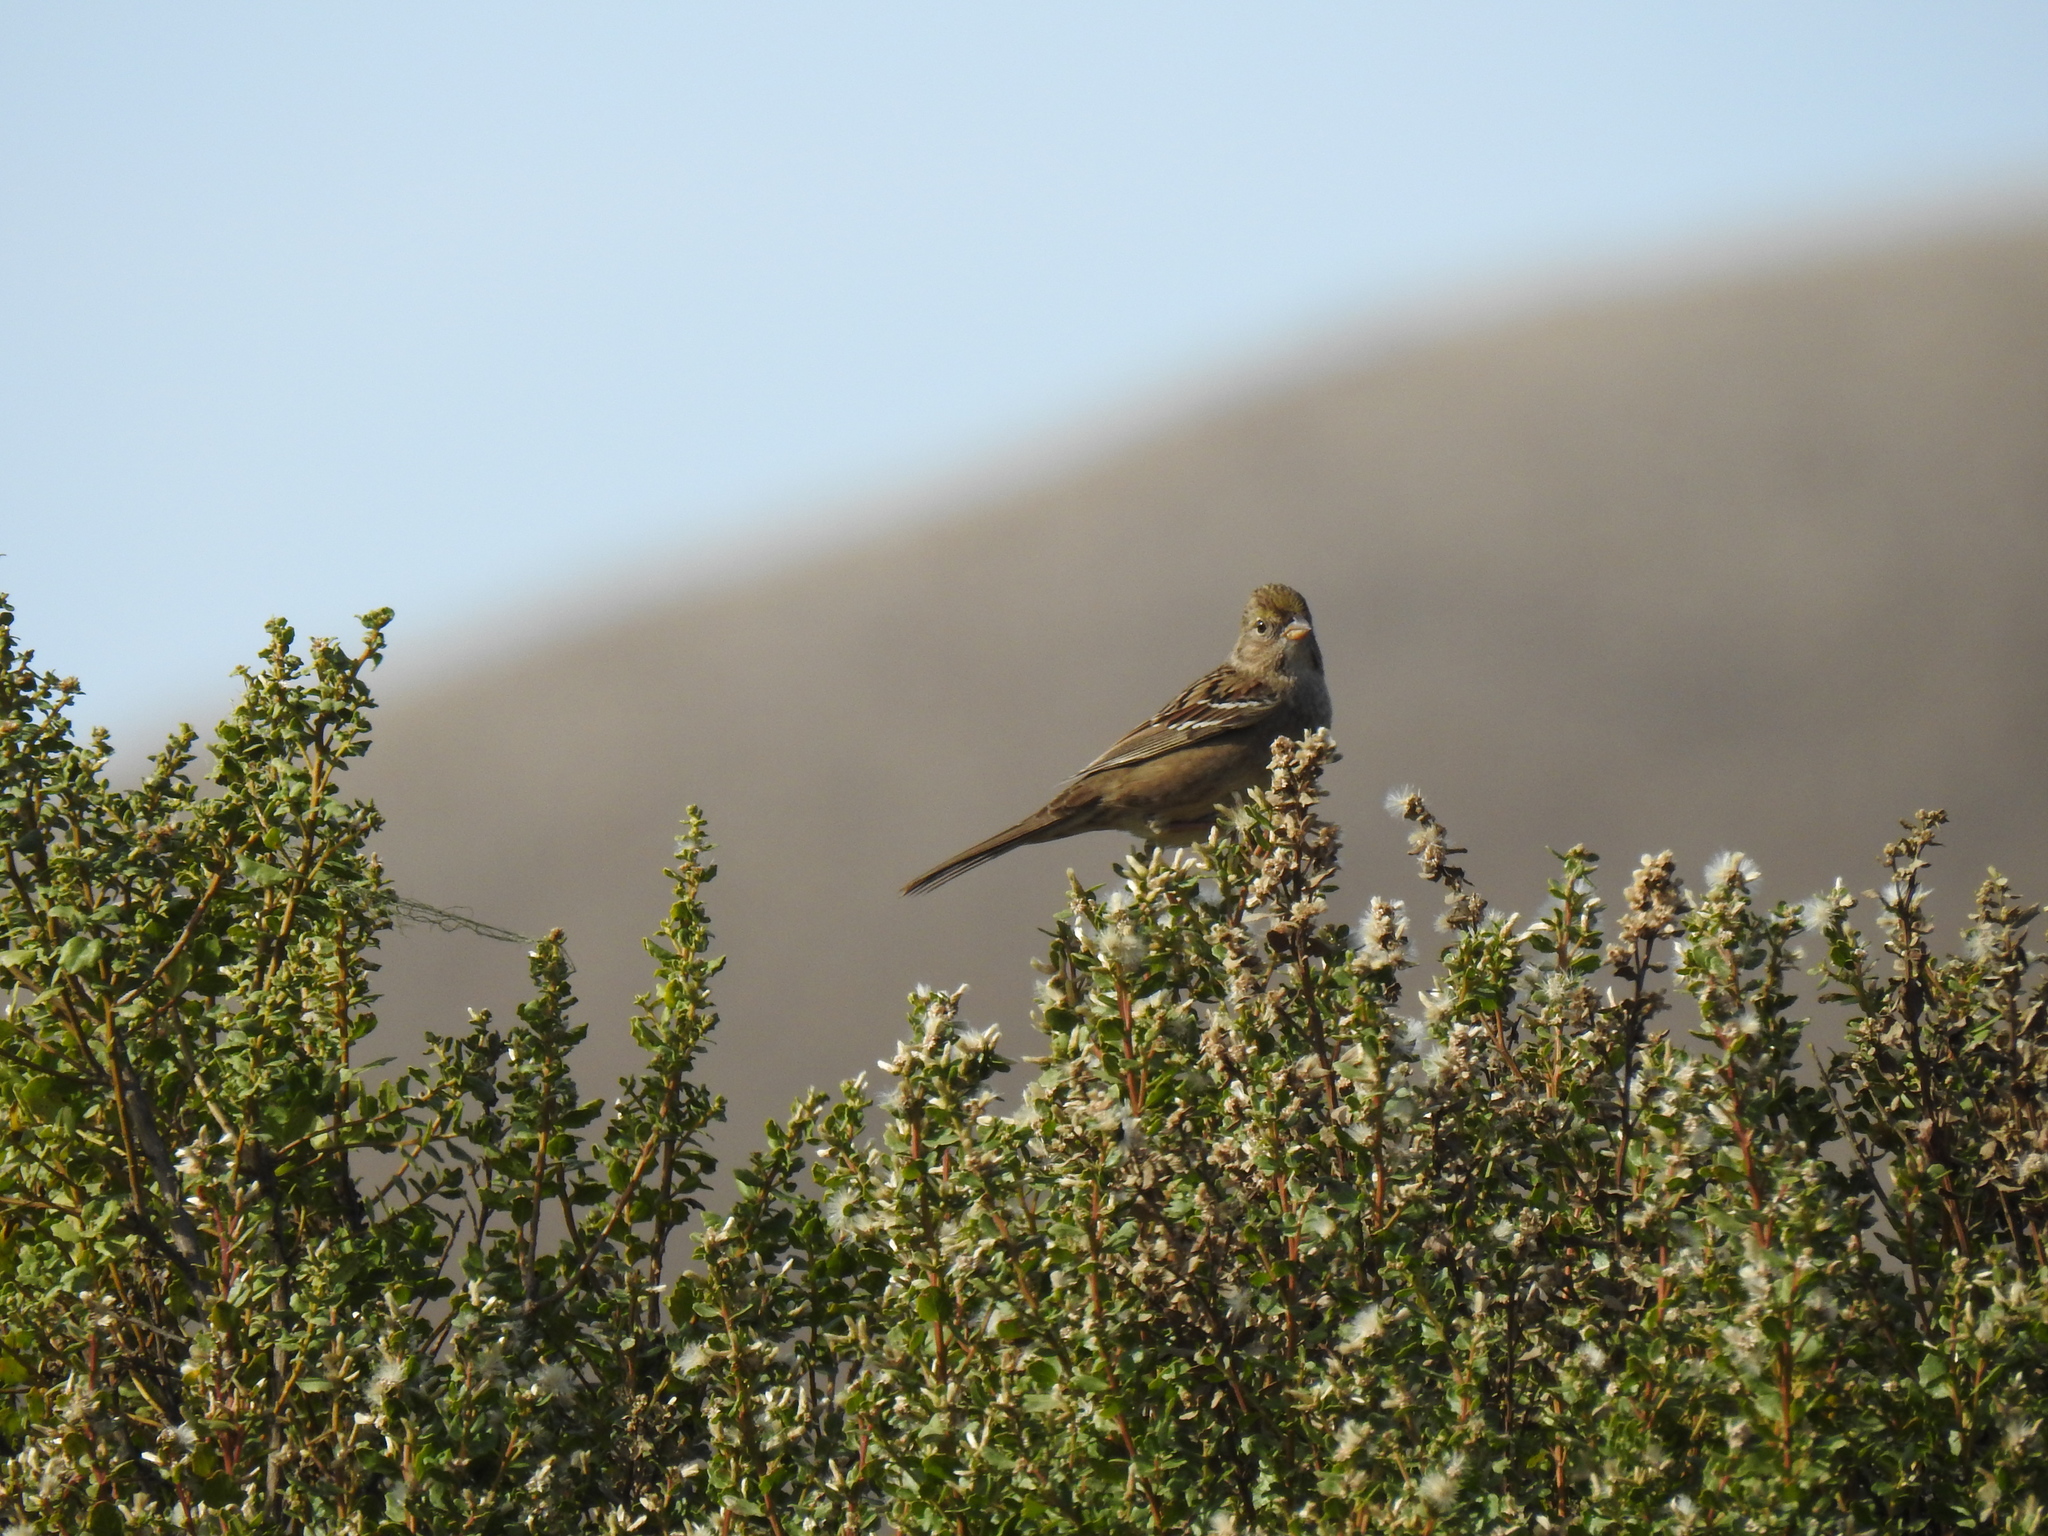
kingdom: Animalia
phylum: Chordata
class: Aves
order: Passeriformes
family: Passerellidae
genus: Zonotrichia
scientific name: Zonotrichia atricapilla
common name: Golden-crowned sparrow
